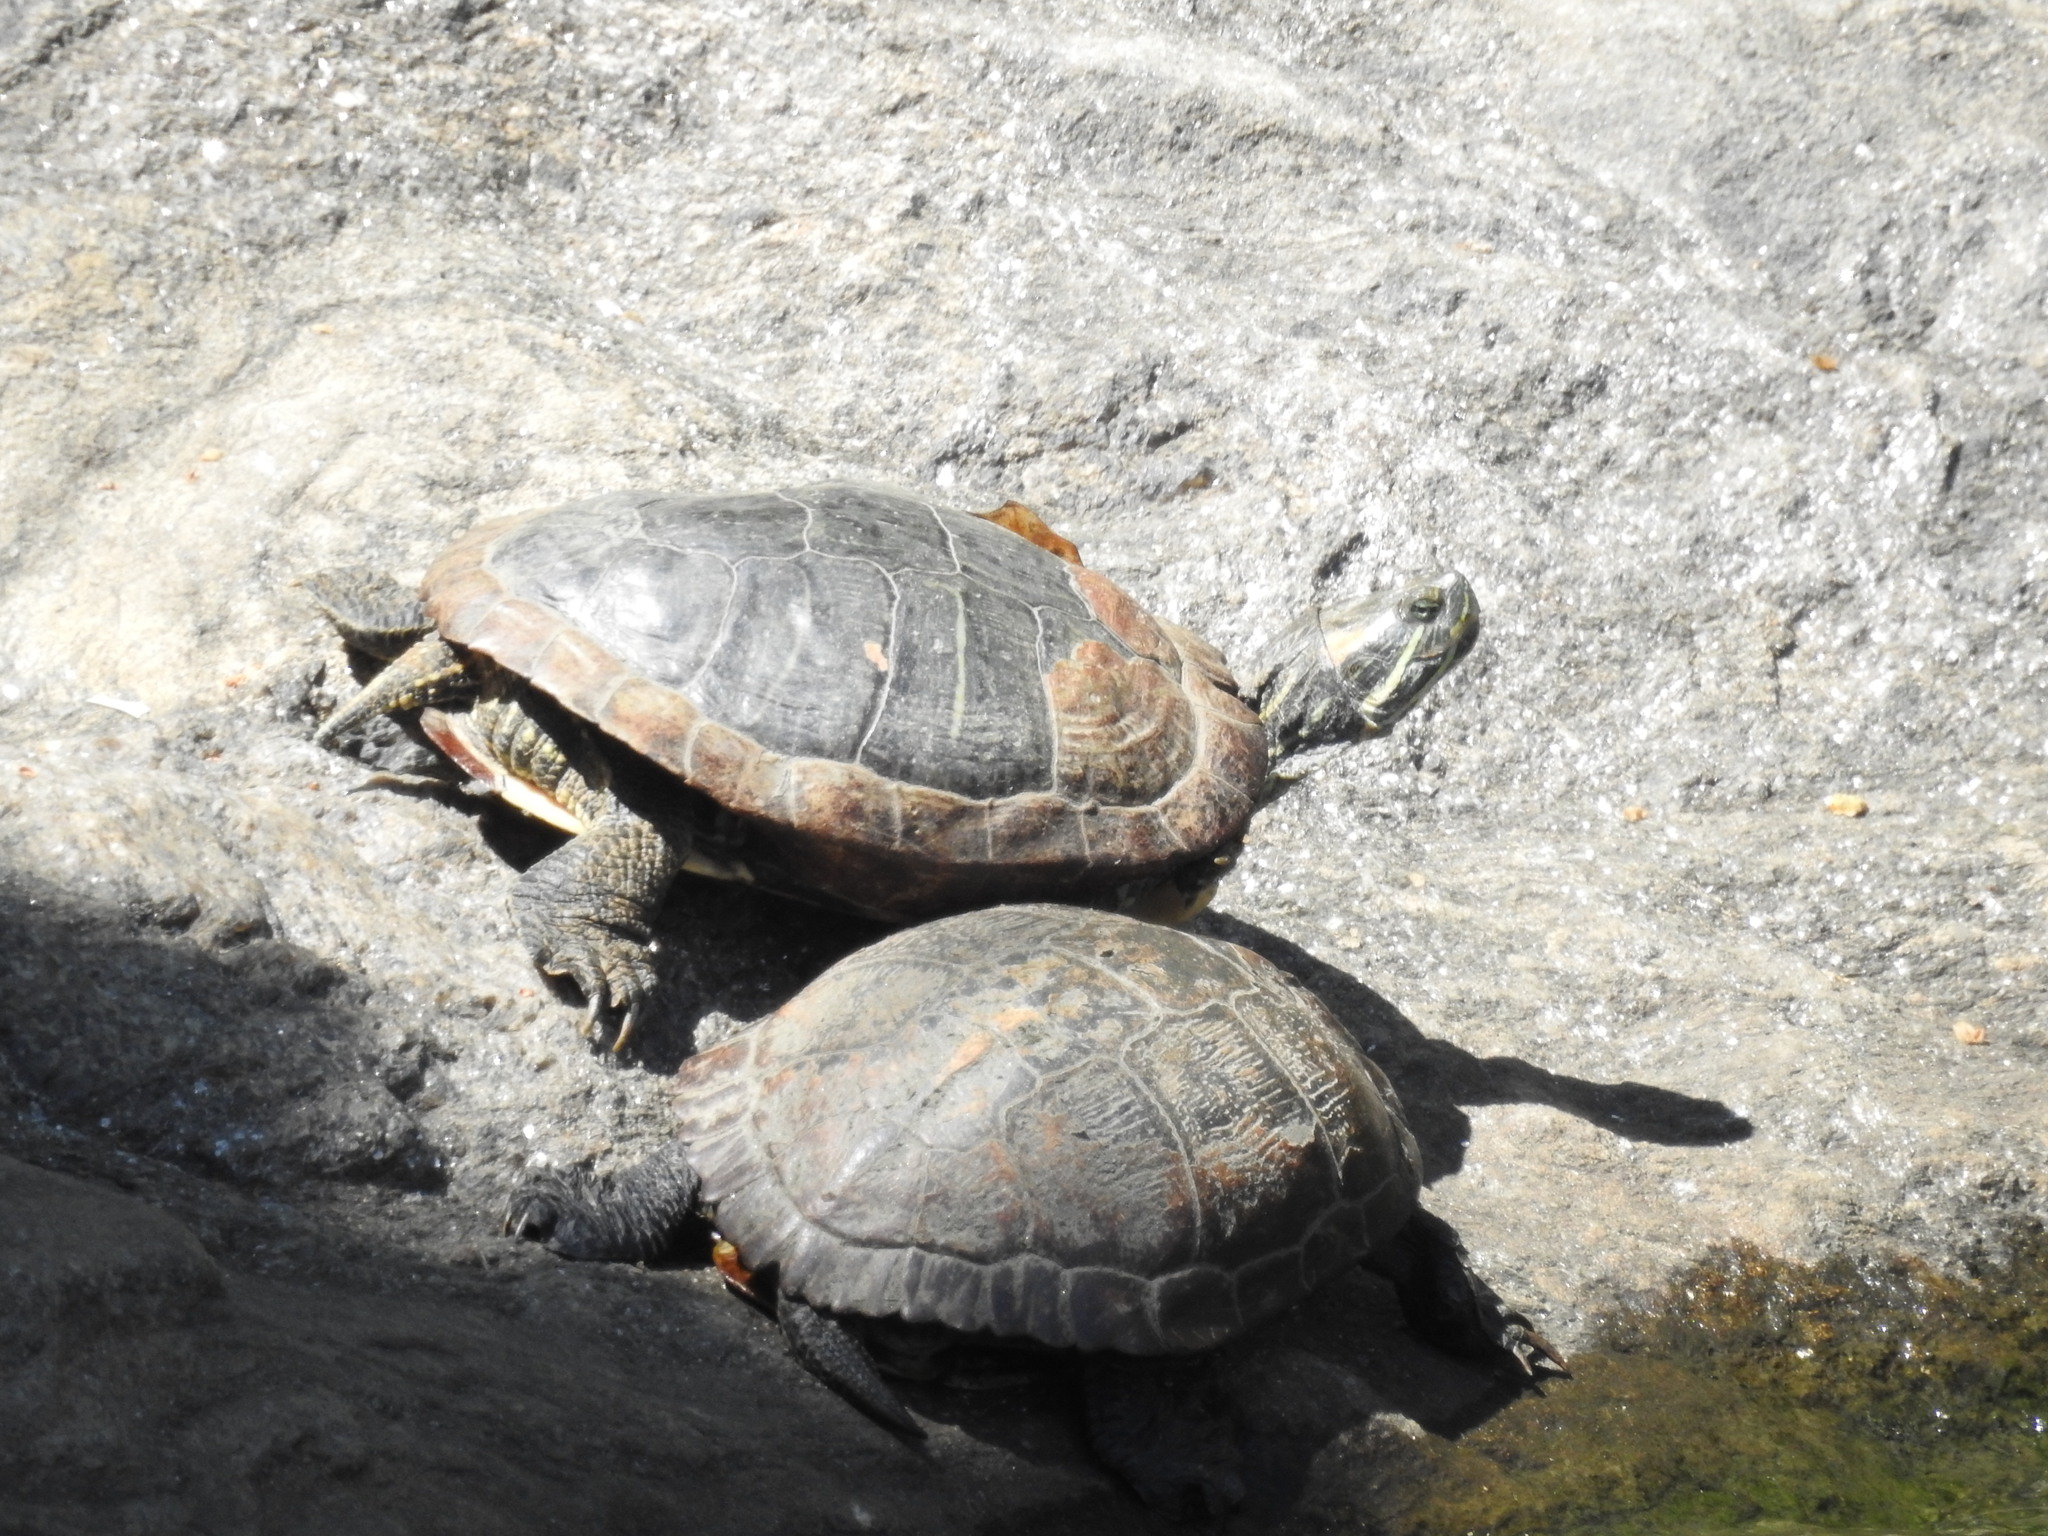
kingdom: Animalia
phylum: Chordata
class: Testudines
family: Emydidae
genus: Trachemys
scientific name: Trachemys scripta
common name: Slider
